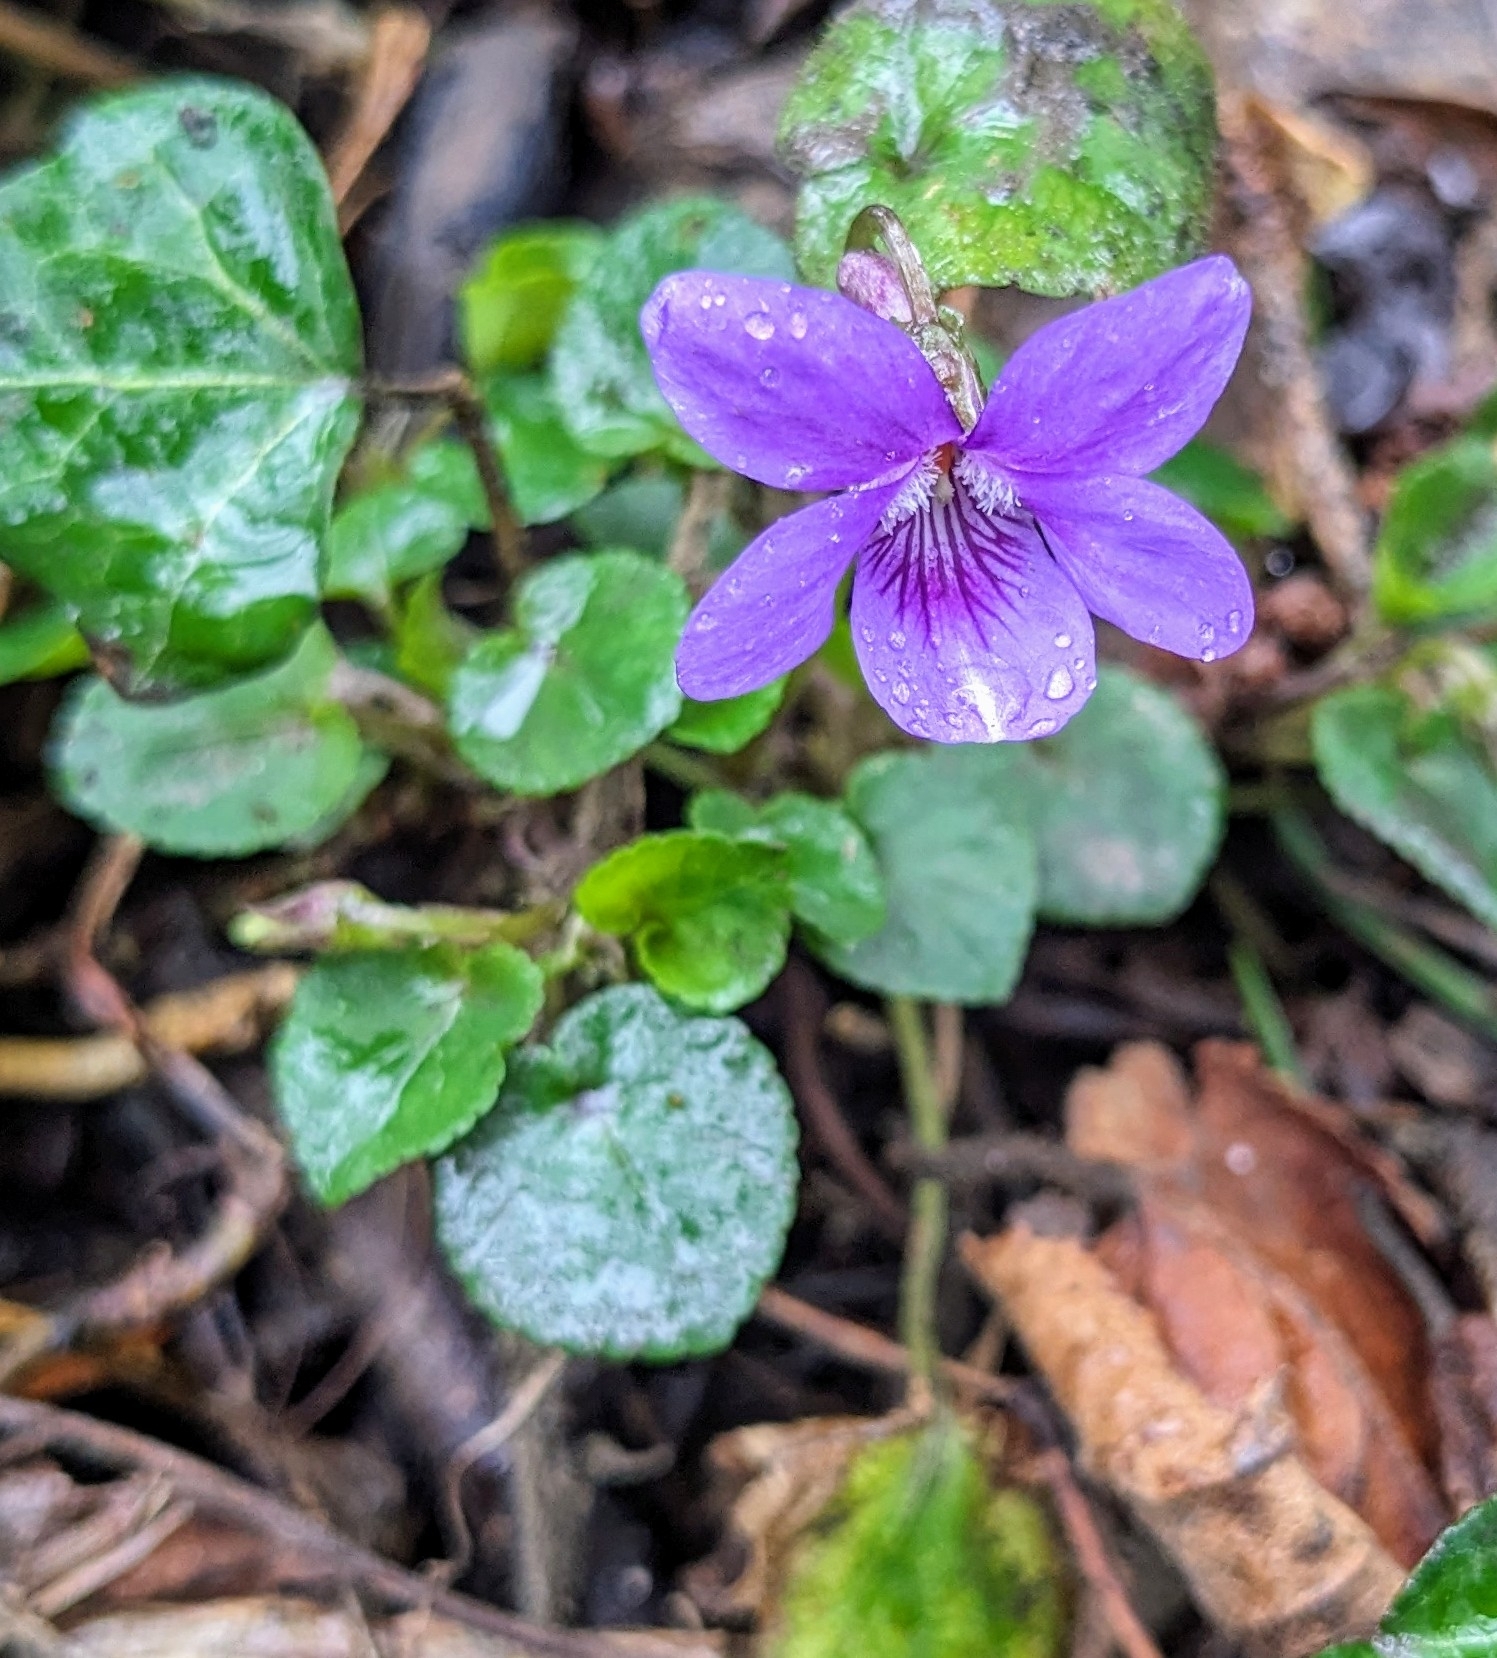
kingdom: Plantae
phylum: Tracheophyta
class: Magnoliopsida
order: Malpighiales
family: Violaceae
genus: Viola
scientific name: Viola riviniana
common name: Common dog-violet
